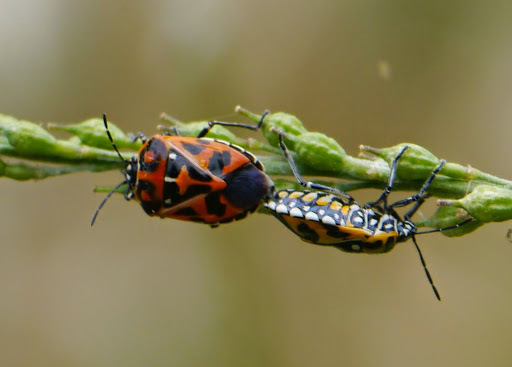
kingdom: Animalia
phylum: Arthropoda
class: Insecta
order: Hemiptera
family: Pentatomidae
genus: Murgantia
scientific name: Murgantia histrionica
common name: Harlequin bug
